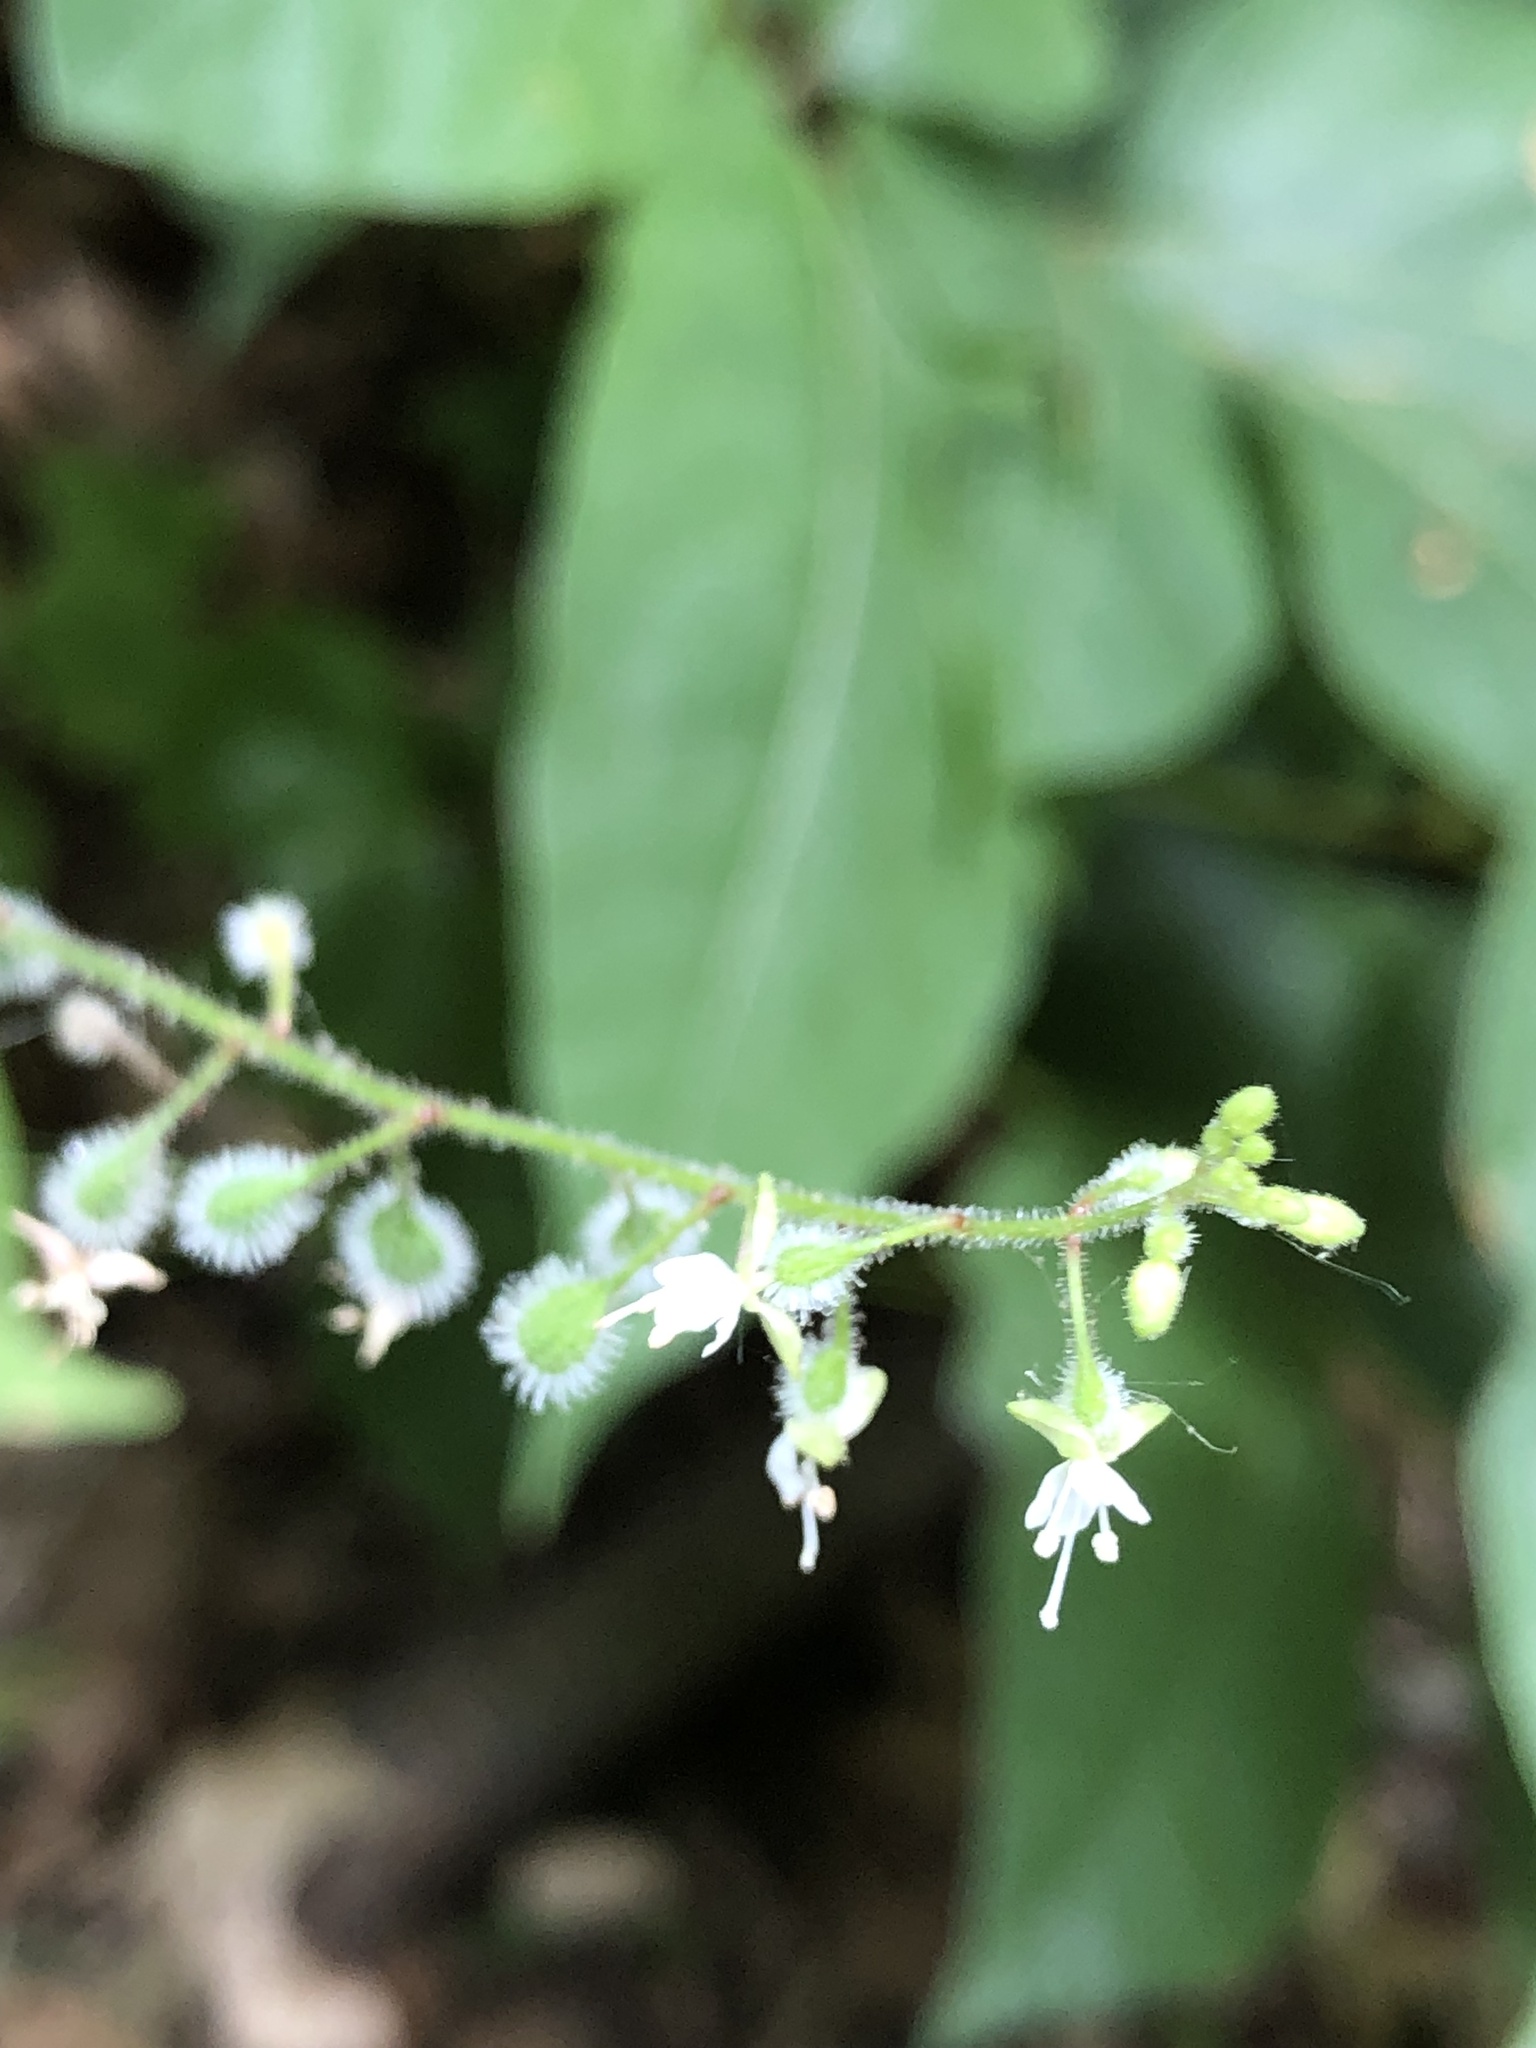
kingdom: Plantae
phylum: Tracheophyta
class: Magnoliopsida
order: Myrtales
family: Onagraceae
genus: Circaea
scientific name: Circaea canadensis
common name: Broad-leaved enchanter's nightshade
